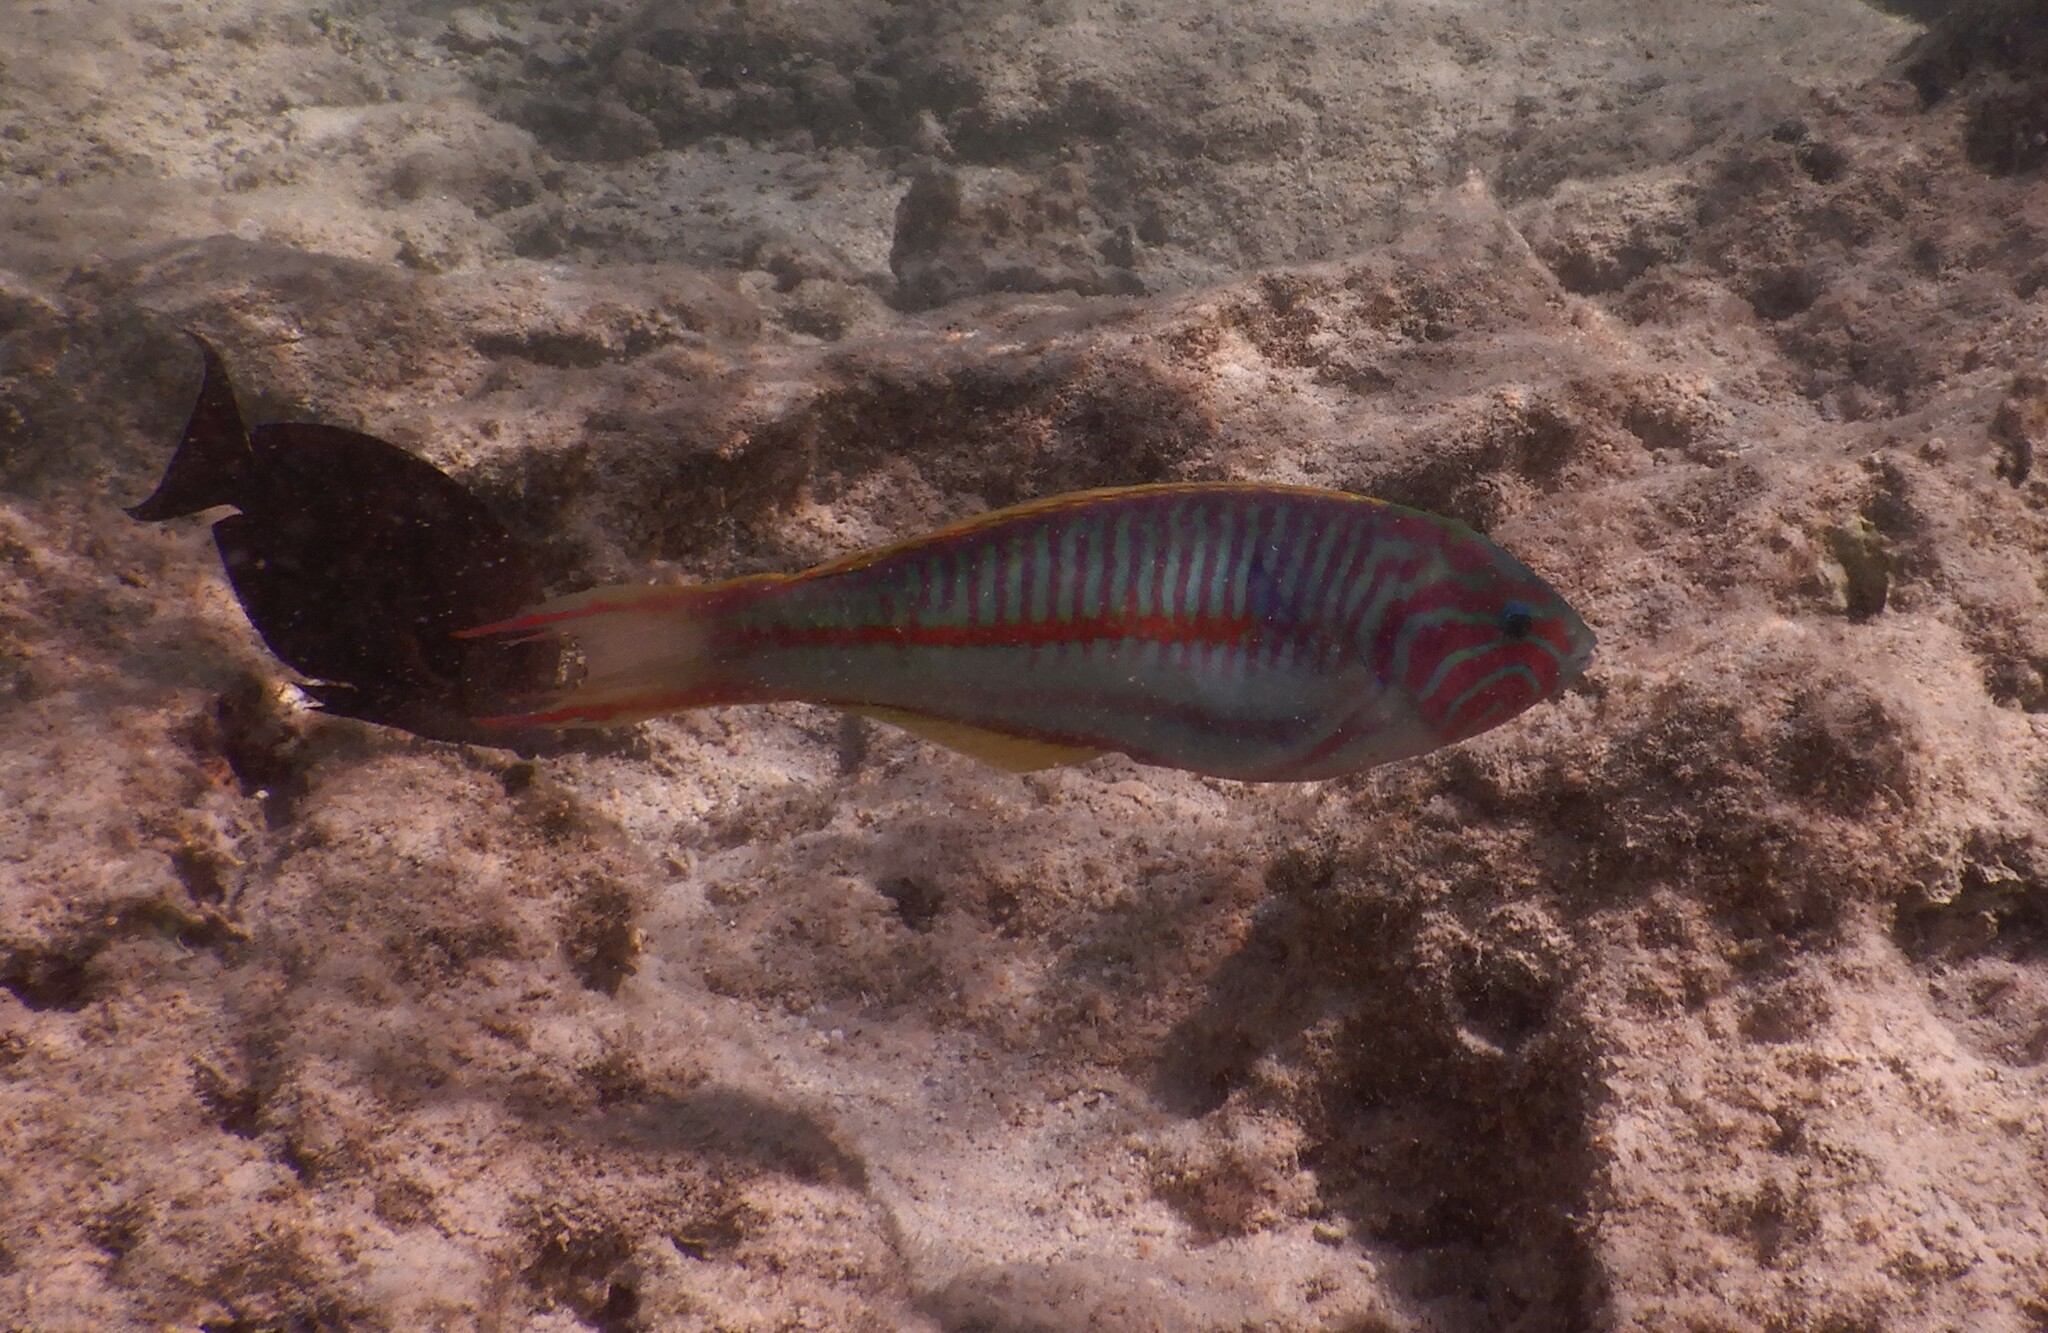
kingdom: Animalia
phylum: Chordata
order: Perciformes
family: Labridae
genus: Thalassoma
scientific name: Thalassoma rueppellii
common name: Klunzinger's wrasse
